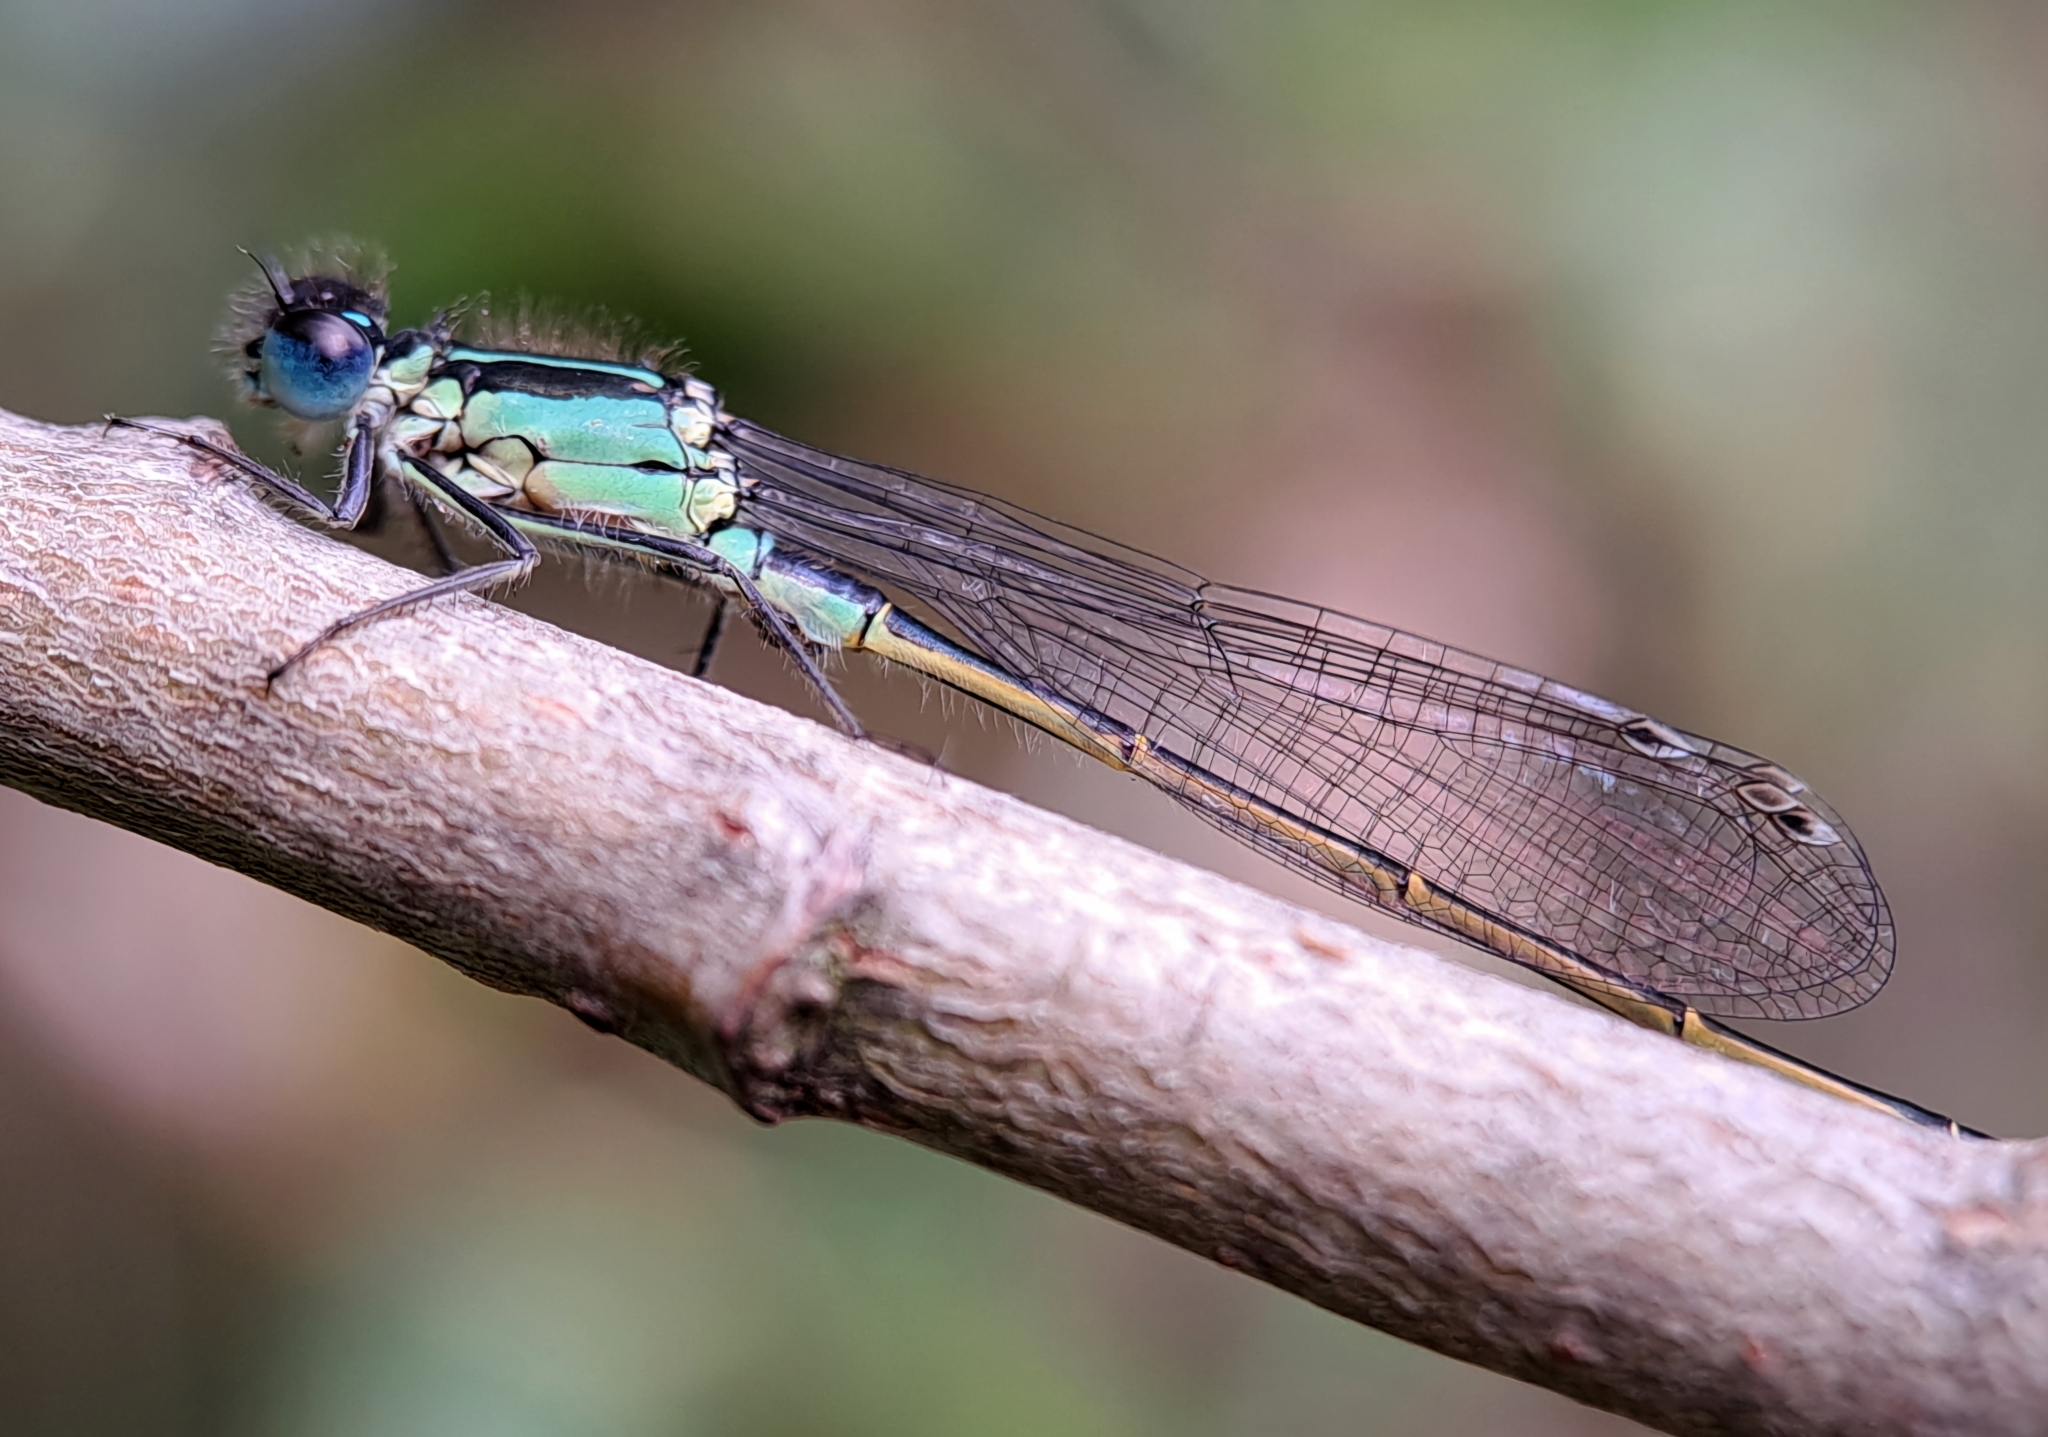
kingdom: Animalia
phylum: Arthropoda
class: Insecta
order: Odonata
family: Coenagrionidae
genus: Ischnura
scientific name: Ischnura elegans
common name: Blue-tailed damselfly
